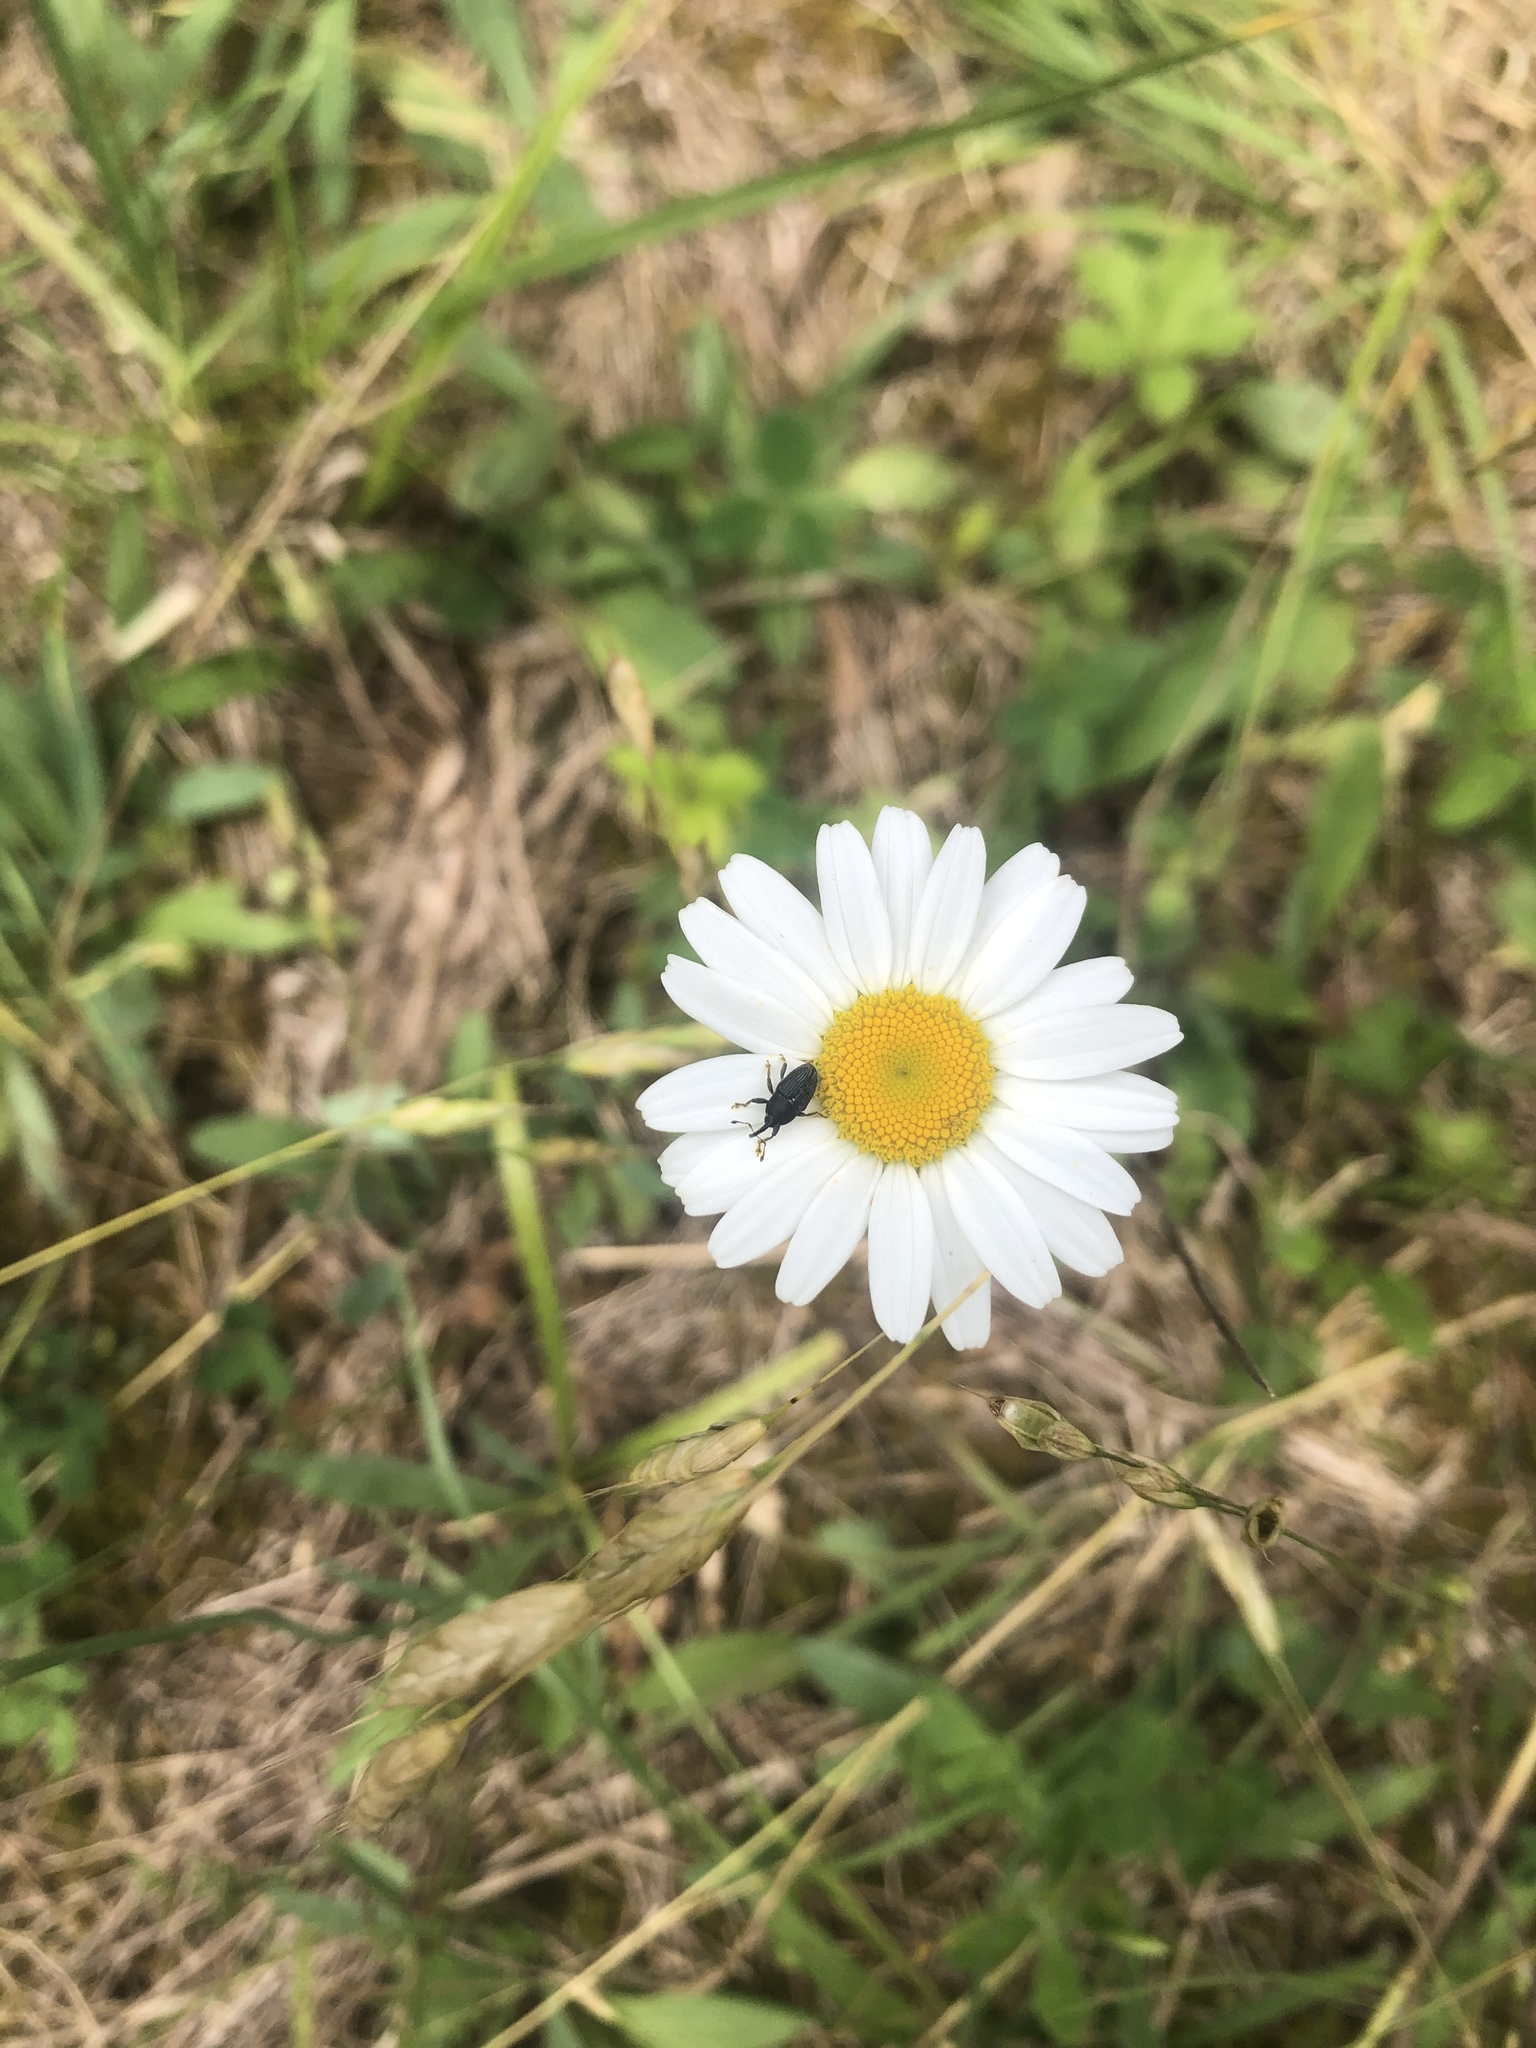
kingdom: Plantae
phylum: Tracheophyta
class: Magnoliopsida
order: Asterales
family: Asteraceae
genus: Leucanthemum
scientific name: Leucanthemum vulgare
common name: Oxeye daisy
